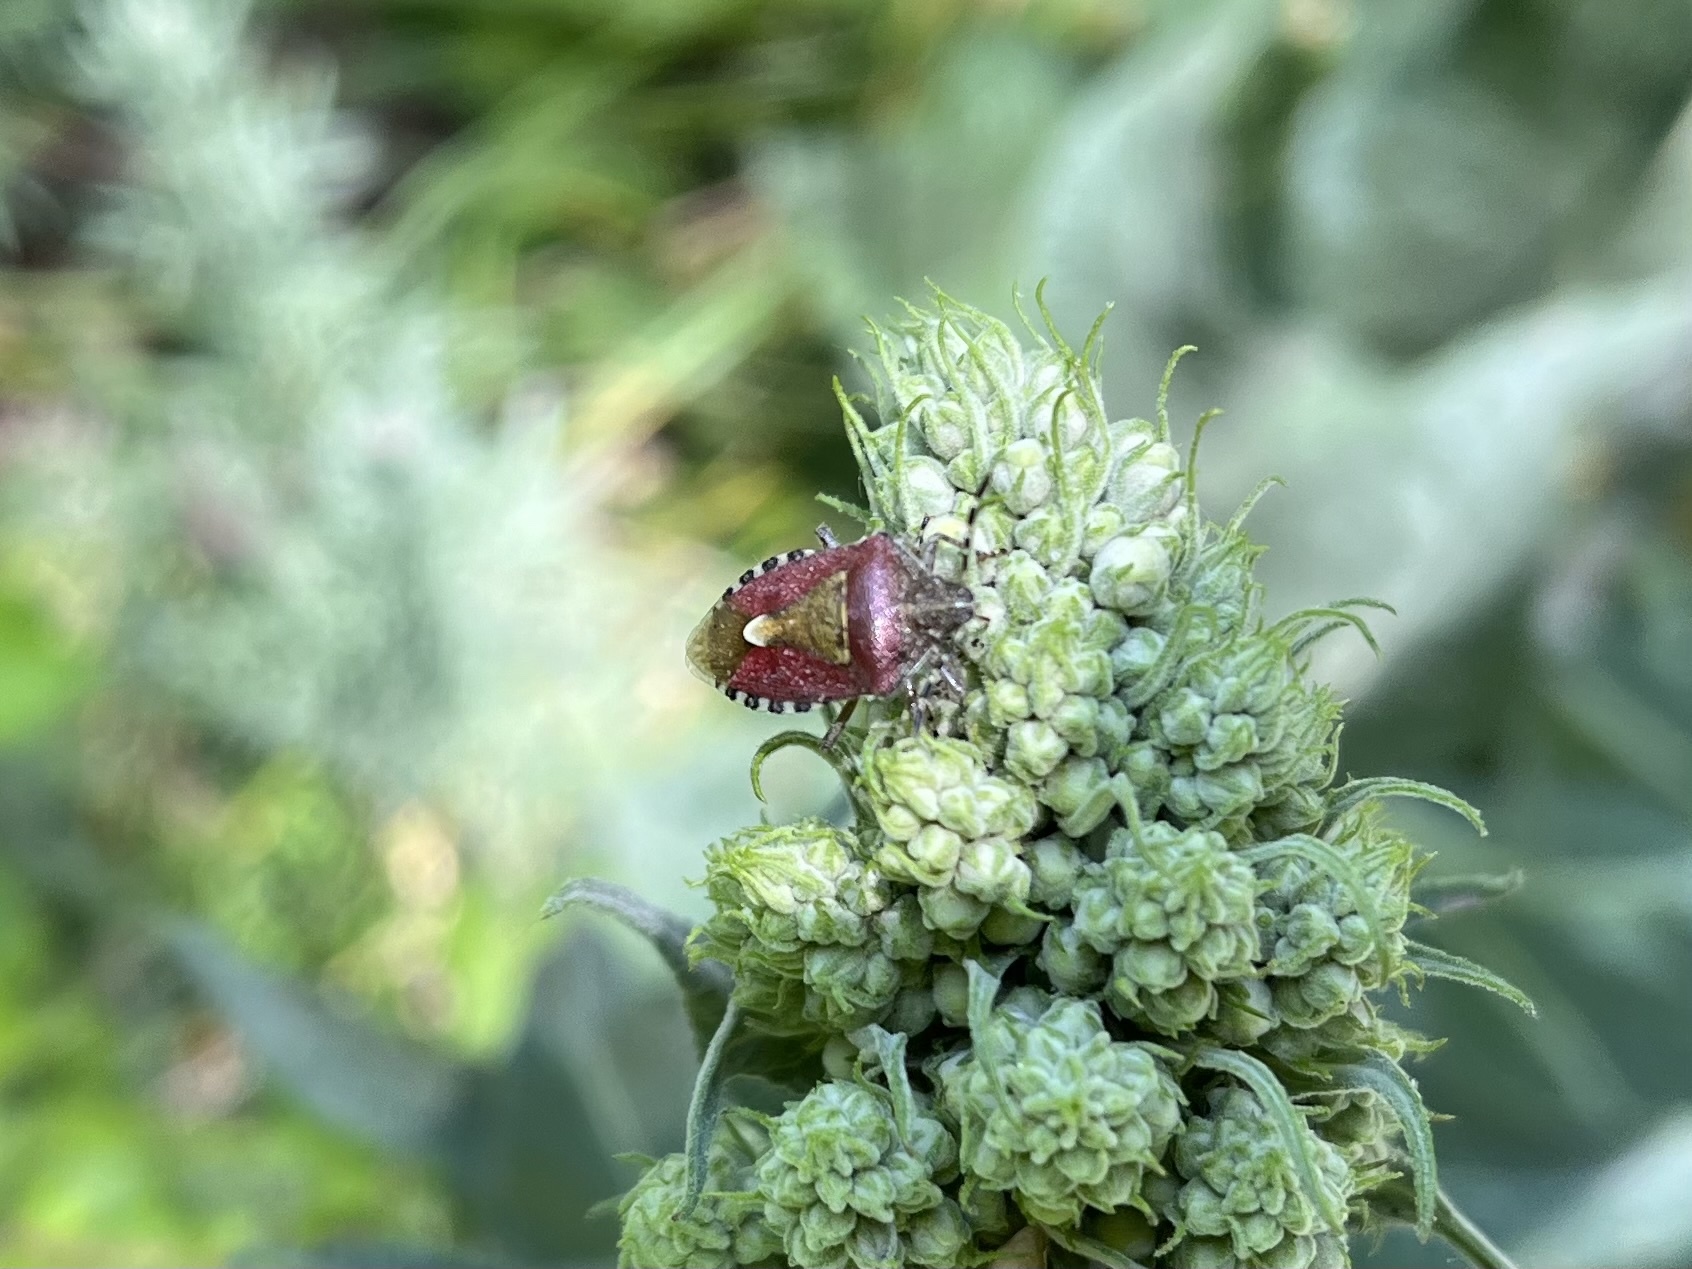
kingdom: Animalia
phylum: Arthropoda
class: Insecta
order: Hemiptera
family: Pentatomidae
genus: Dolycoris
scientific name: Dolycoris baccarum
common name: Sloe bug
